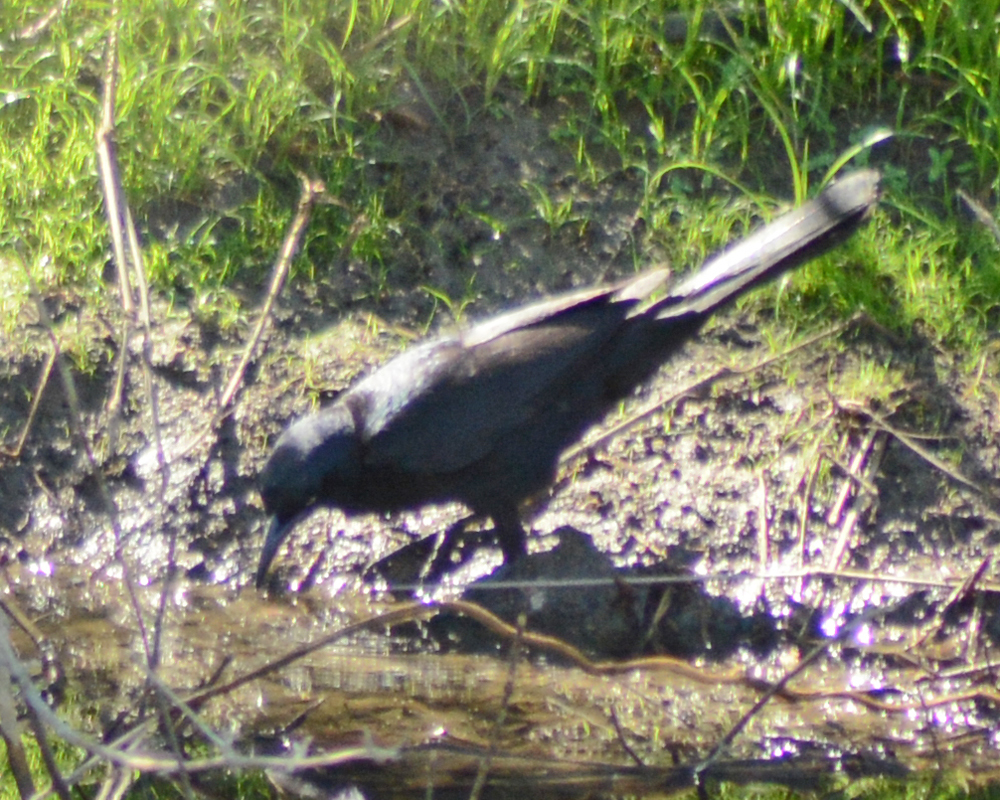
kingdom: Animalia
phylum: Chordata
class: Aves
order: Passeriformes
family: Icteridae
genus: Quiscalus
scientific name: Quiscalus mexicanus
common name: Great-tailed grackle
